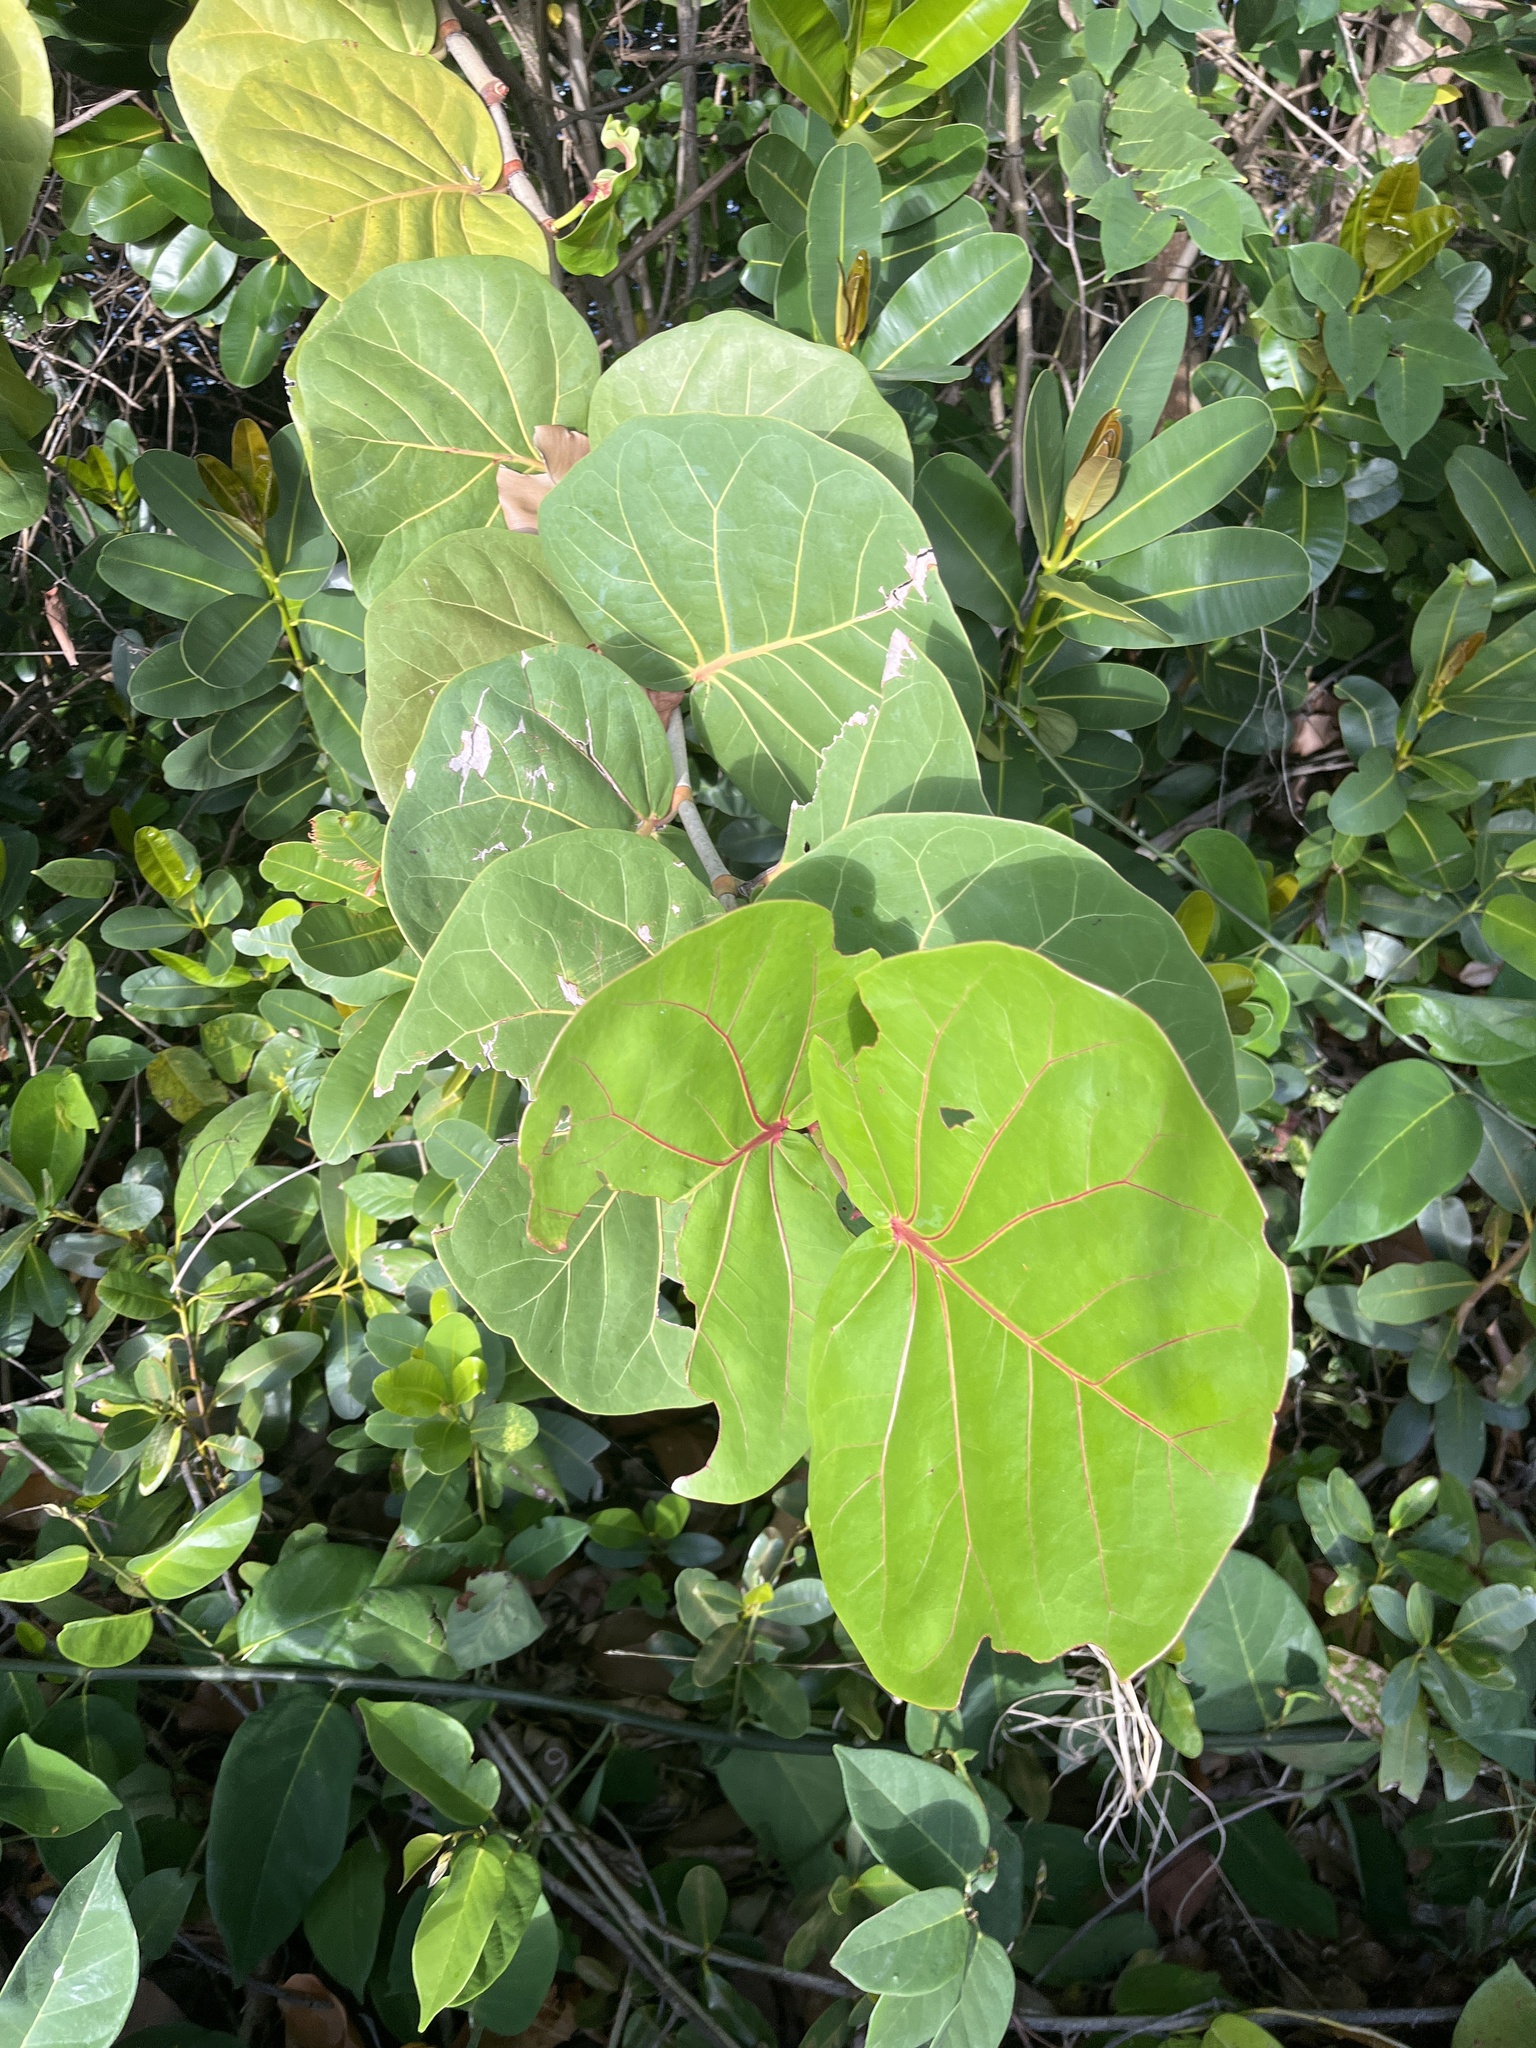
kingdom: Plantae
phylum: Tracheophyta
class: Magnoliopsida
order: Caryophyllales
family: Polygonaceae
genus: Coccoloba
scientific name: Coccoloba uvifera
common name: Seagrape
